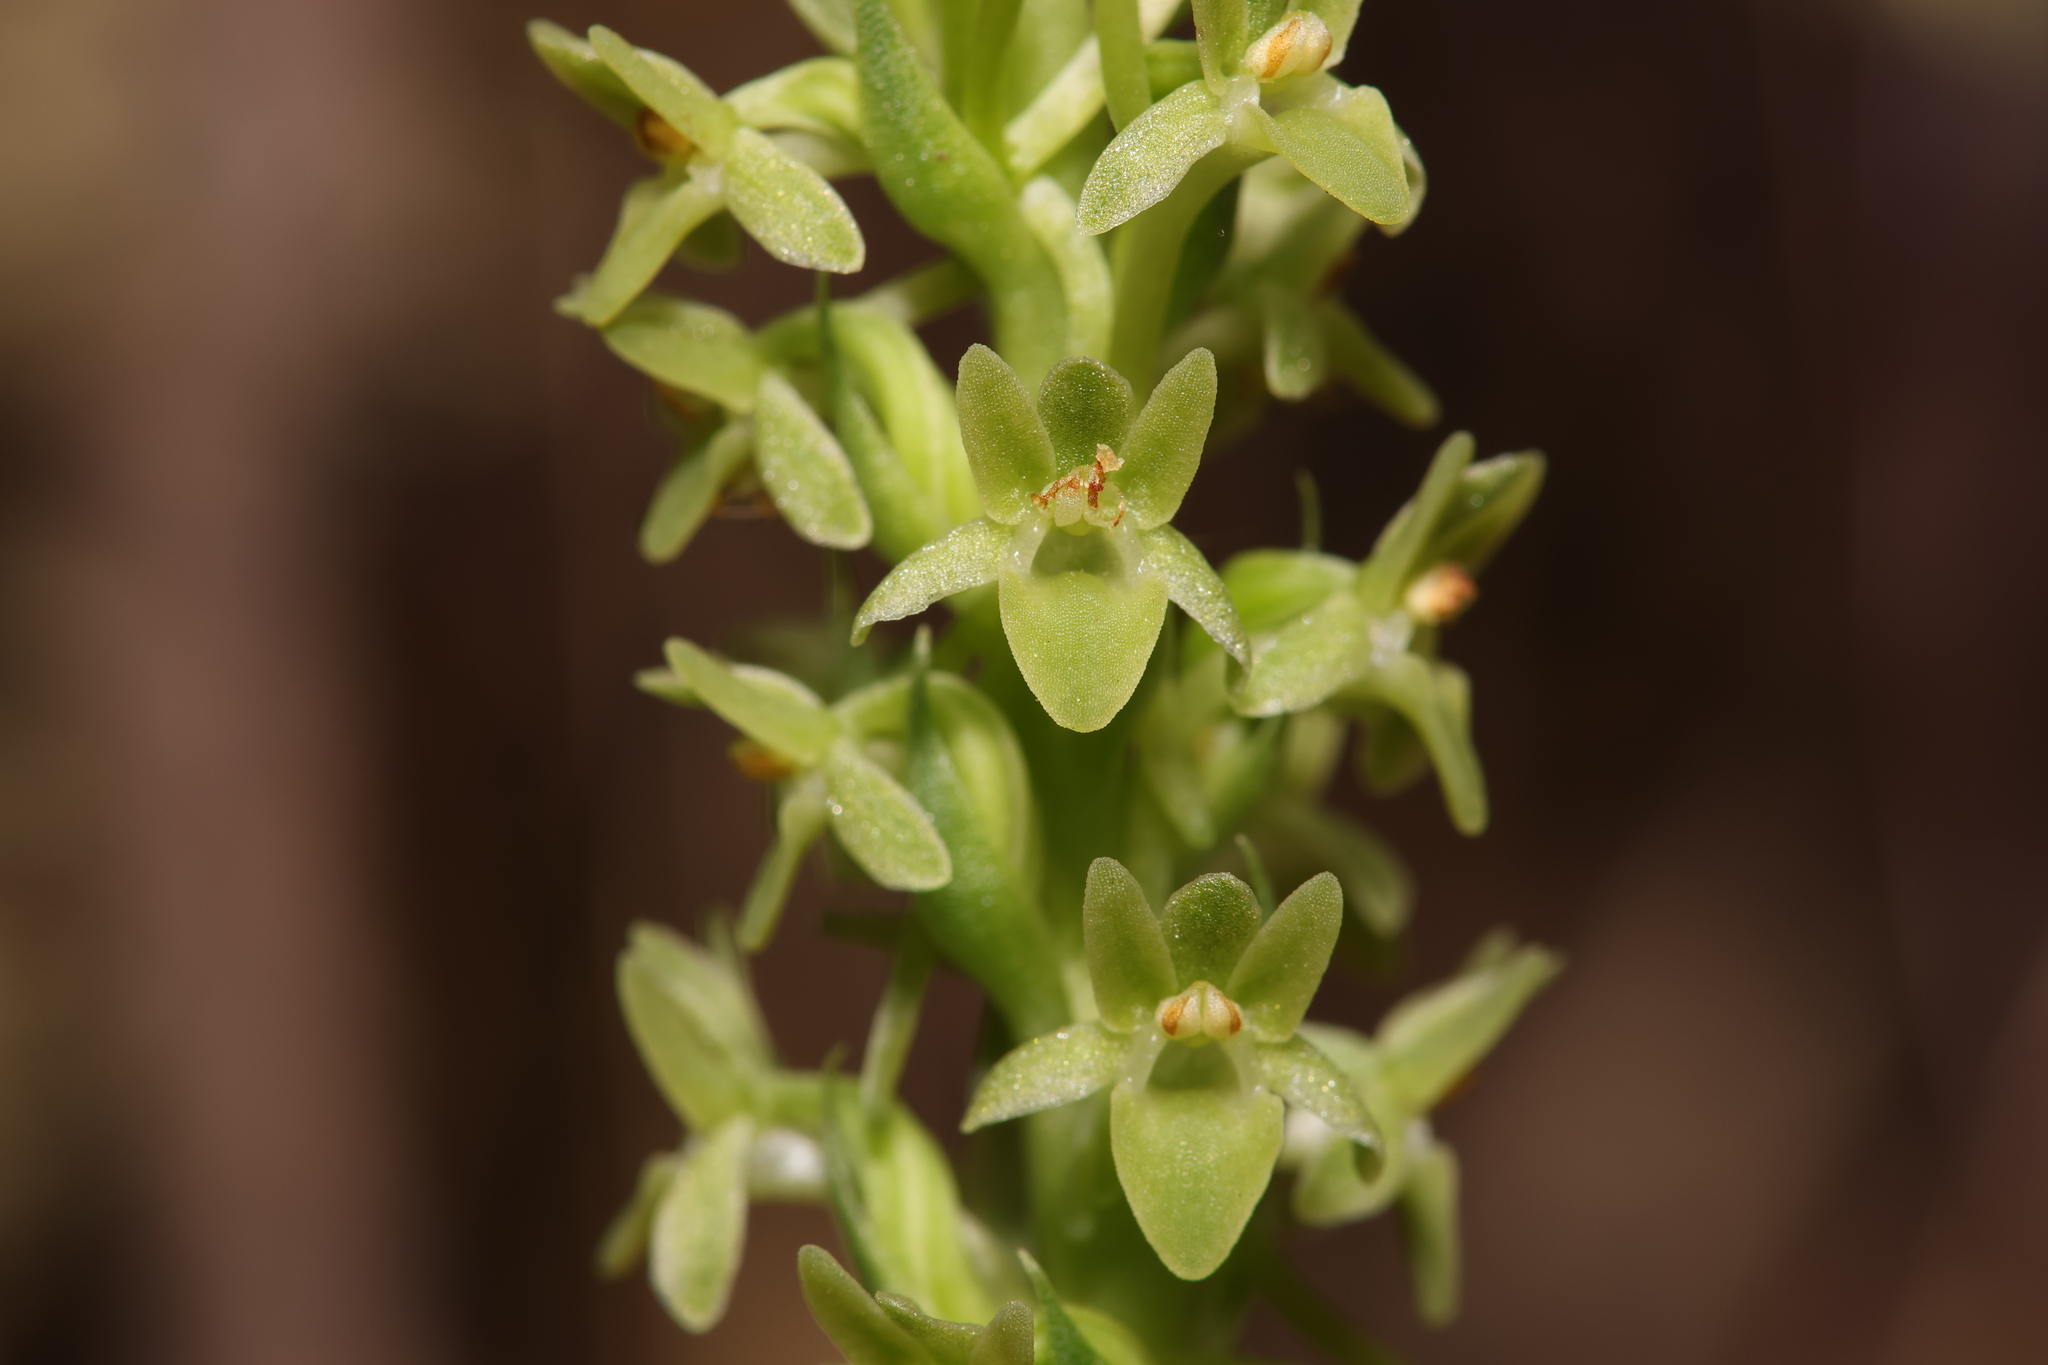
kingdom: Plantae
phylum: Tracheophyta
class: Liliopsida
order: Asparagales
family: Orchidaceae
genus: Platanthera
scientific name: Platanthera michaelii
